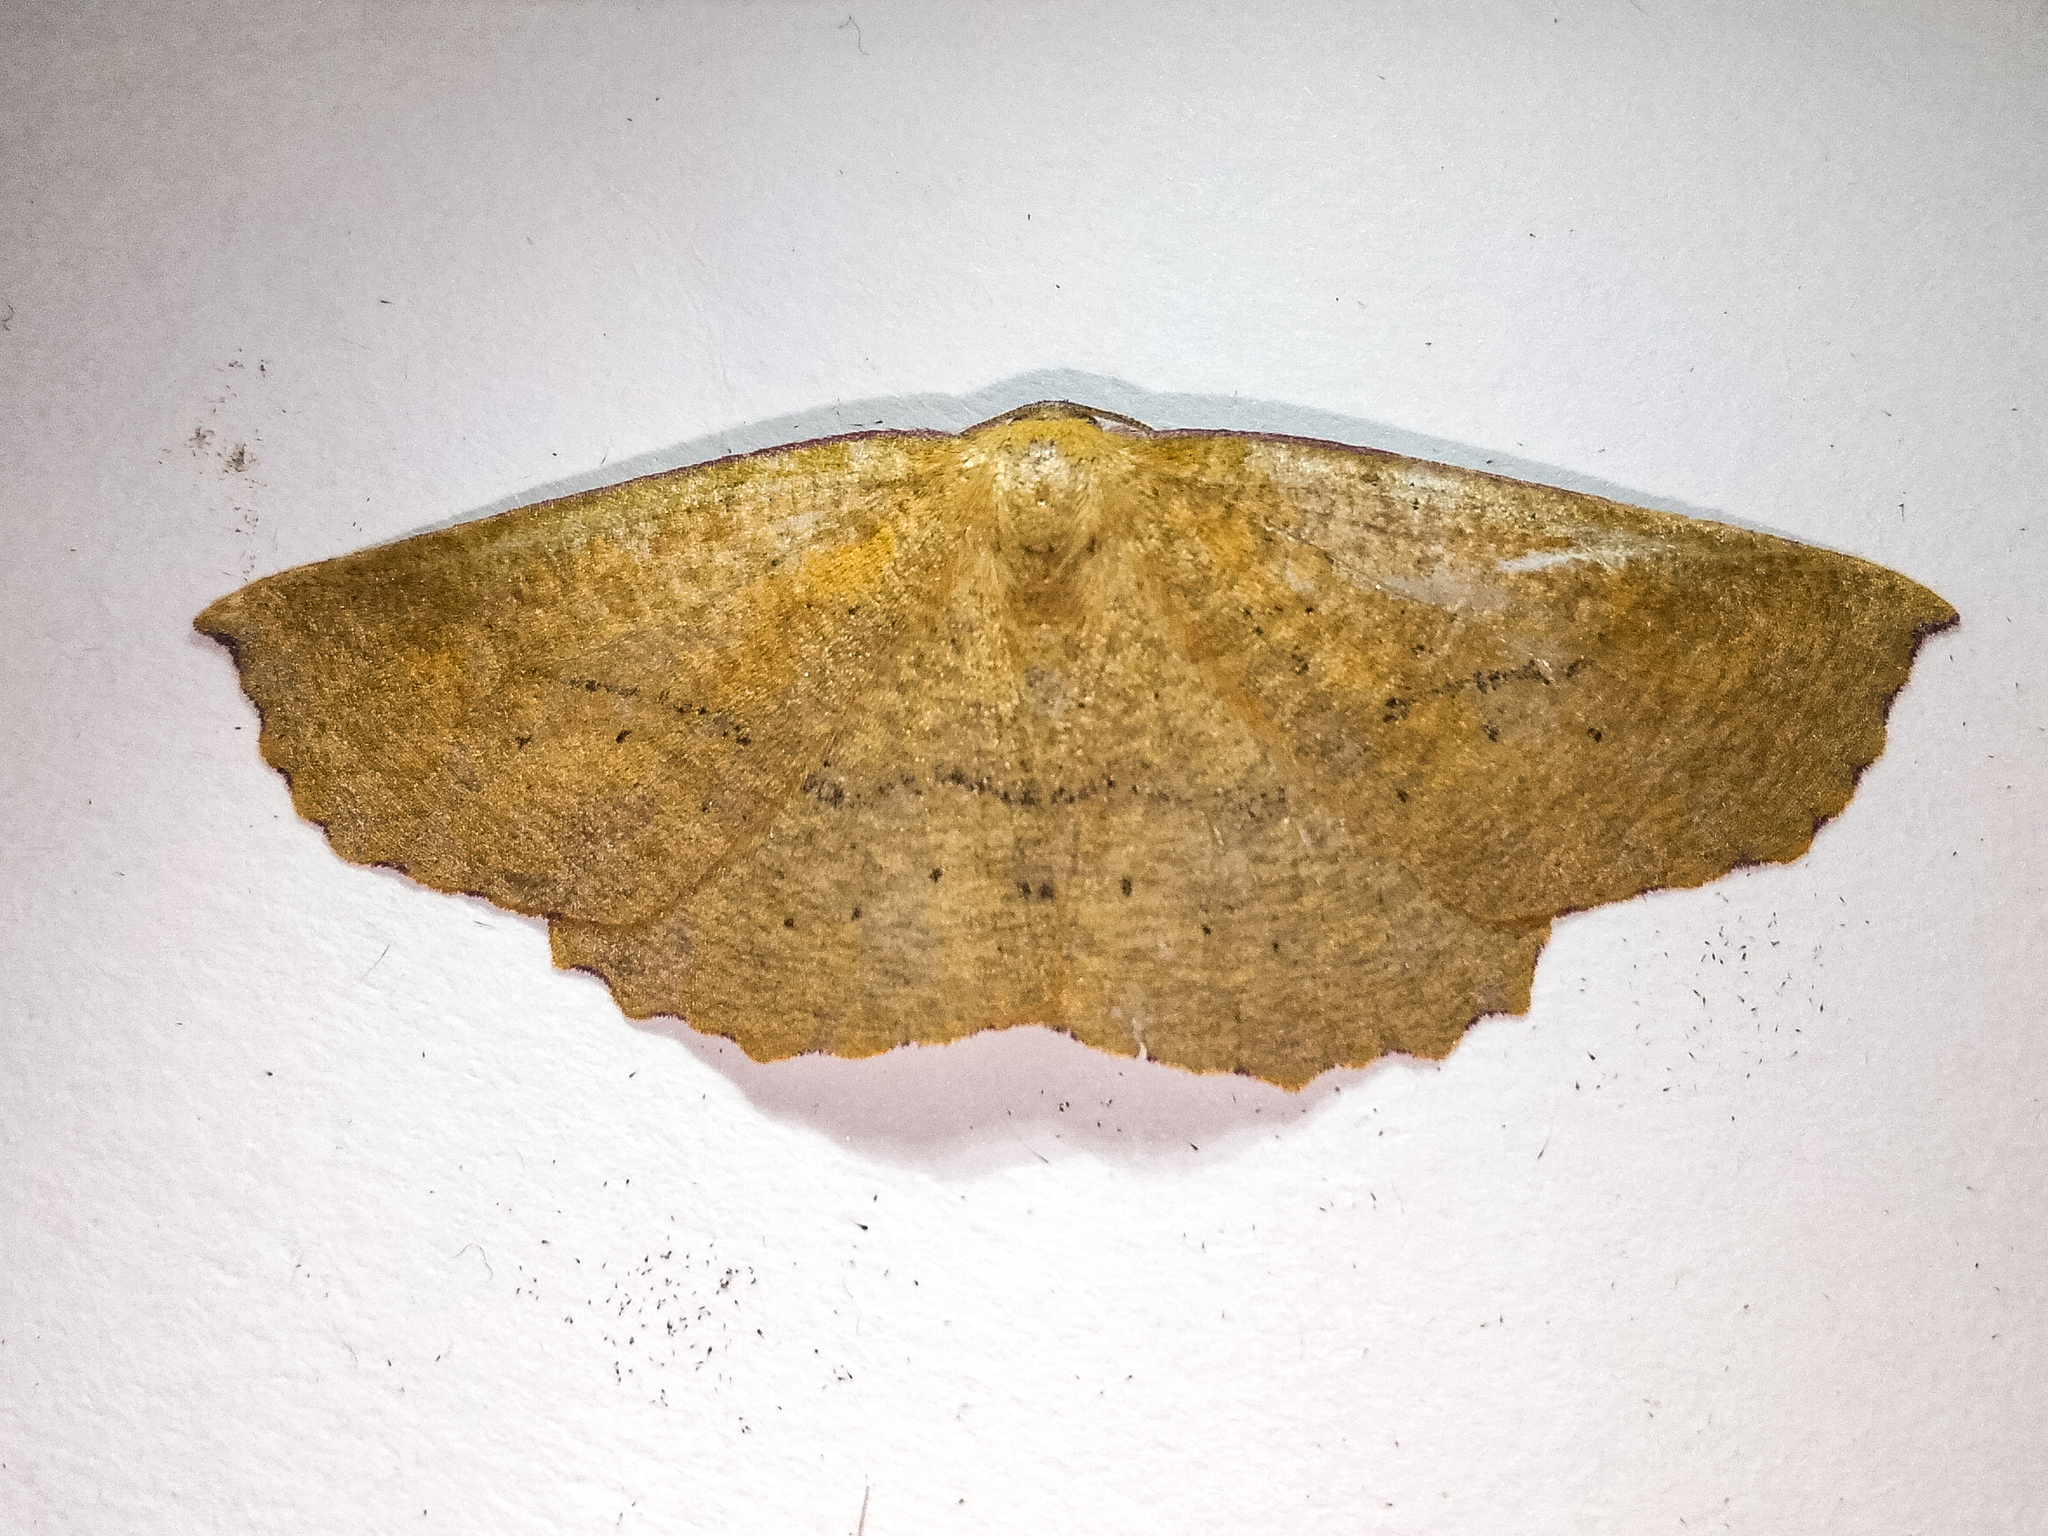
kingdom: Animalia
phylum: Arthropoda
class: Insecta
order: Lepidoptera
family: Geometridae
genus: Xyridacma
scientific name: Xyridacma alectoraria
